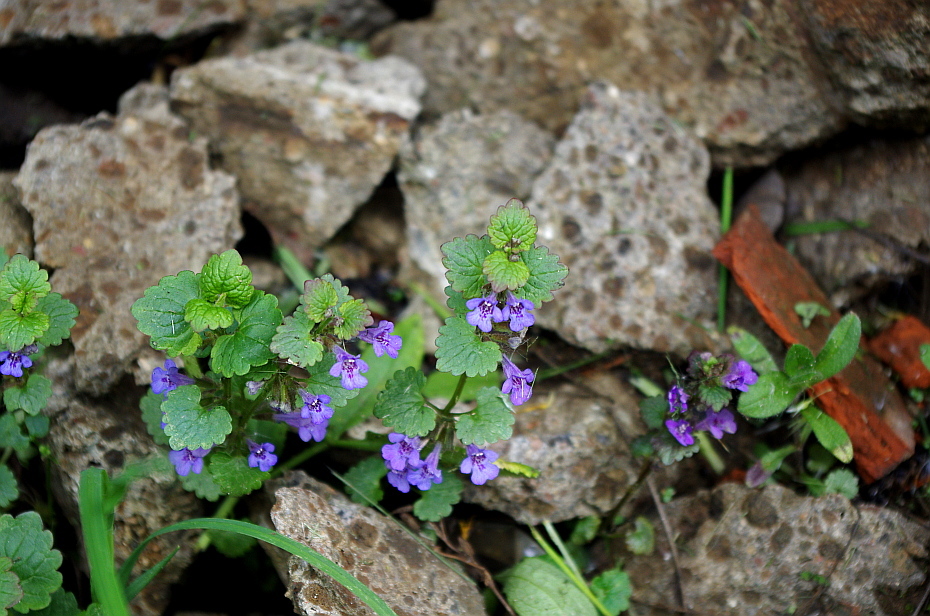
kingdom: Plantae
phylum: Tracheophyta
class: Magnoliopsida
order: Lamiales
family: Lamiaceae
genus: Glechoma
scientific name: Glechoma hederacea
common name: Ground ivy
